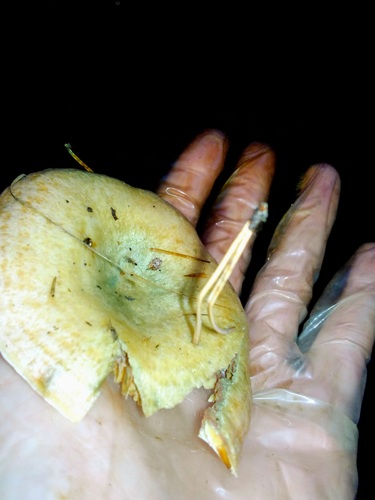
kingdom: Fungi
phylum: Basidiomycota
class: Agaricomycetes
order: Russulales
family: Russulaceae
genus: Lactarius
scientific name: Lactarius deterrimus
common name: False saffron milkcap
